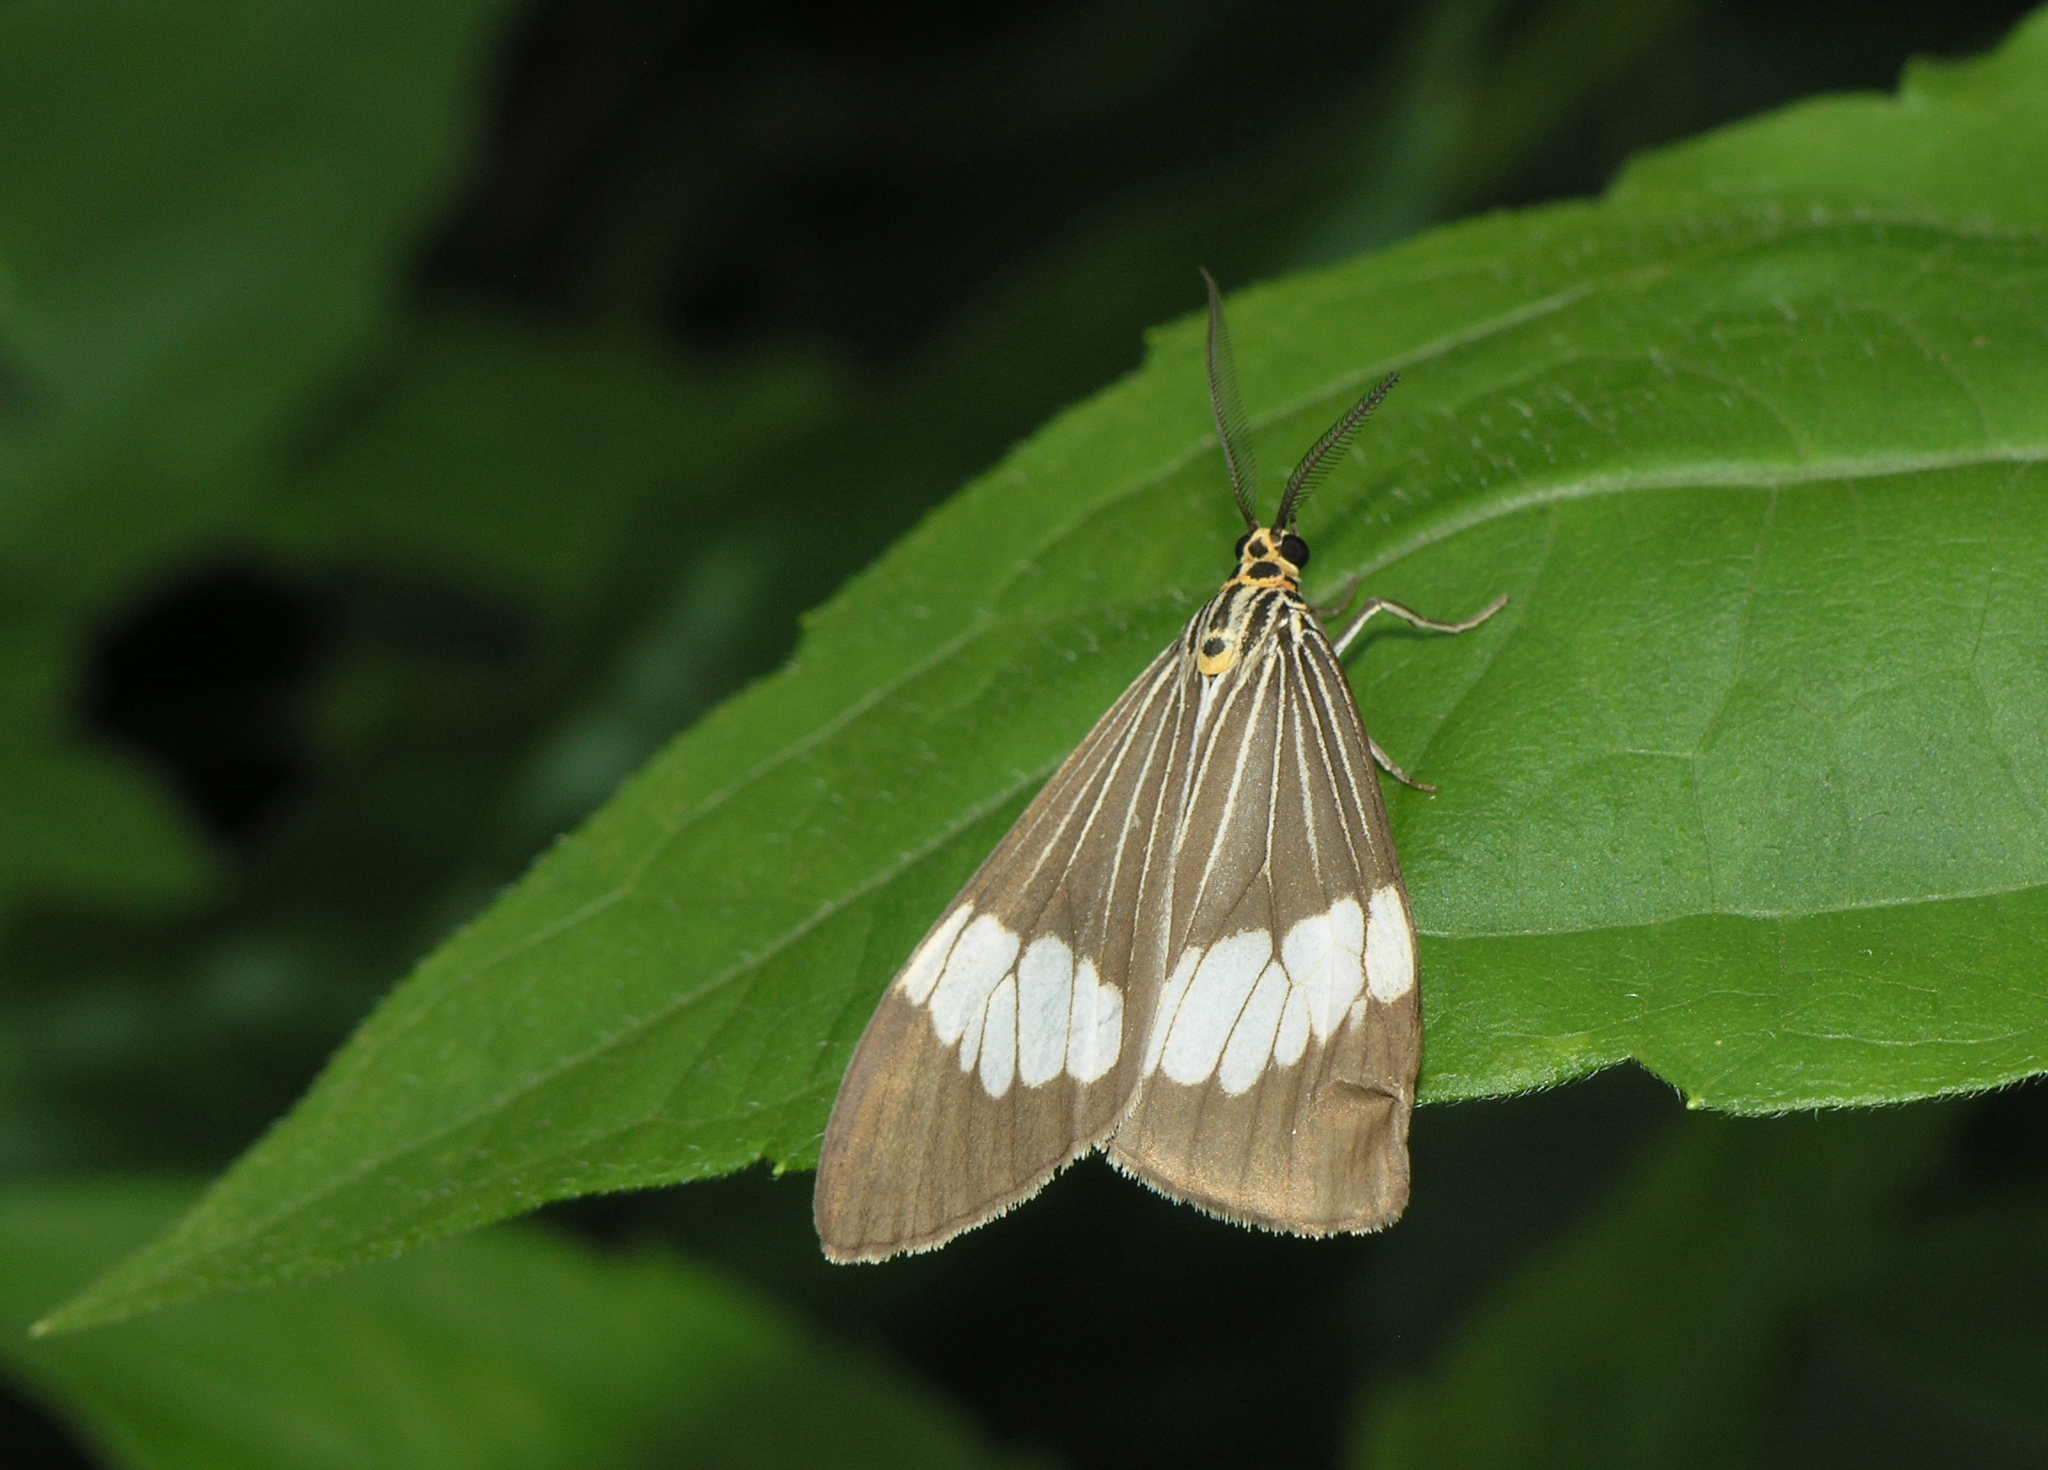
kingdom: Animalia
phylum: Arthropoda
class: Insecta
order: Lepidoptera
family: Erebidae
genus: Nyctemera
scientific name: Nyctemera baulus
